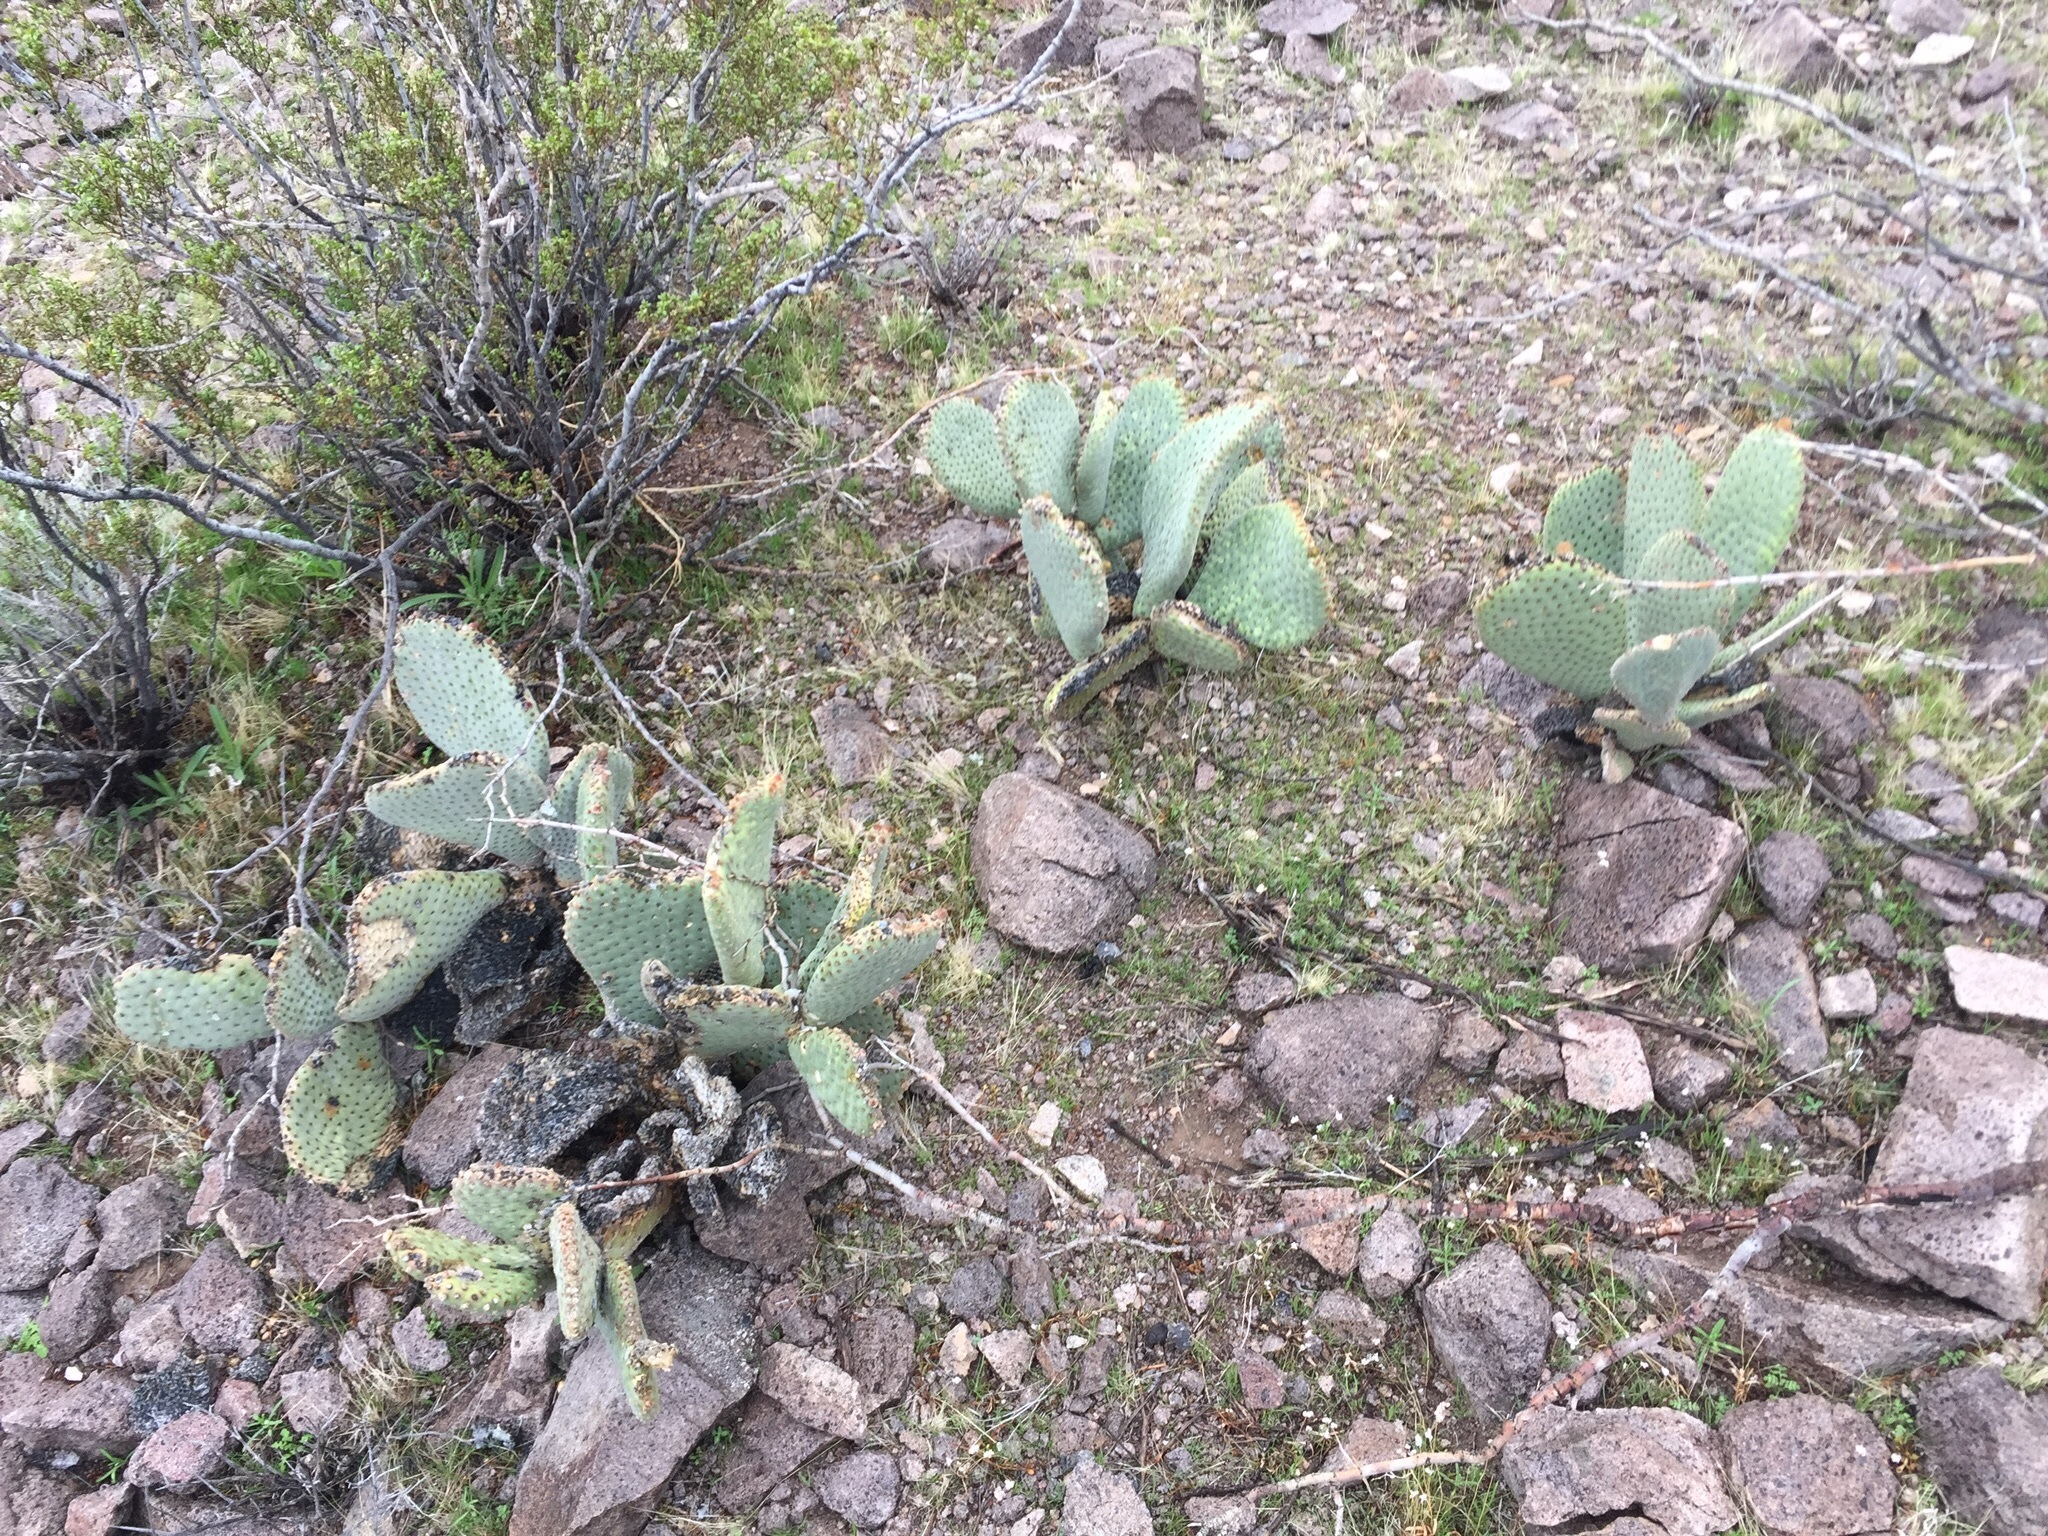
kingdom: Plantae
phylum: Tracheophyta
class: Magnoliopsida
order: Caryophyllales
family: Cactaceae
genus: Opuntia
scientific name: Opuntia basilaris
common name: Beavertail prickly-pear
